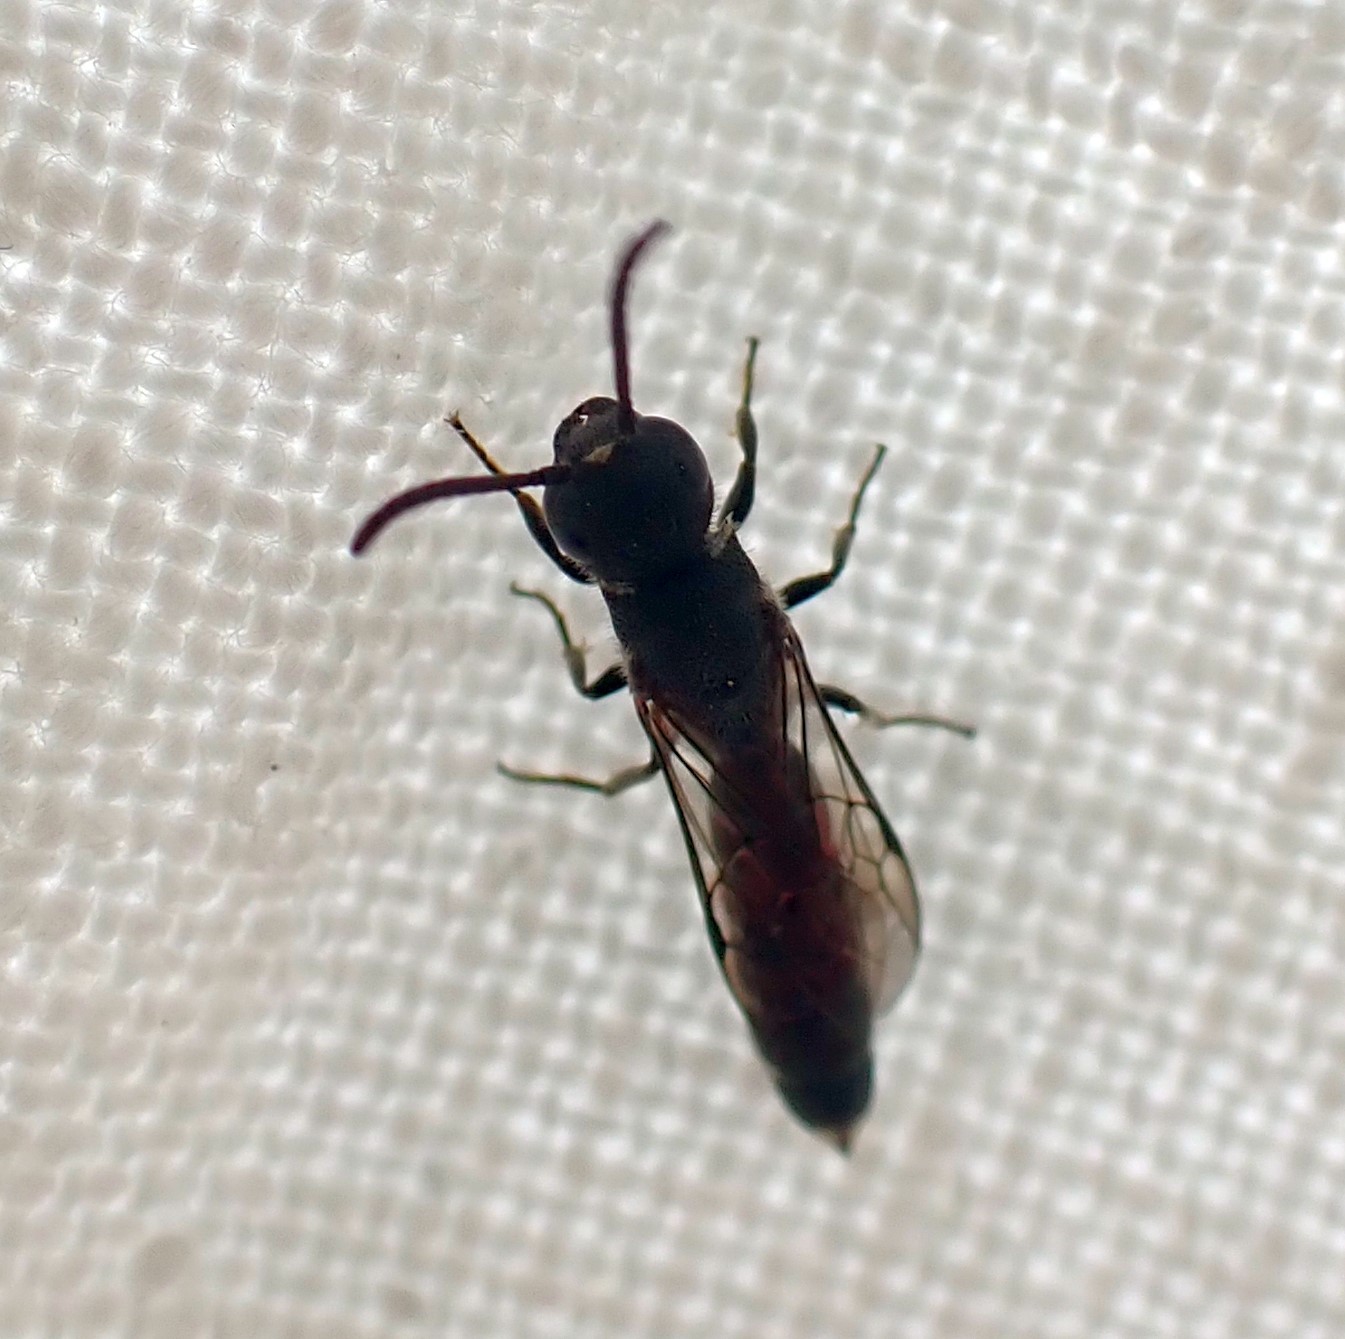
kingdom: Animalia
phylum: Arthropoda
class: Insecta
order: Hymenoptera
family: Sapygidae
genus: Sapygina
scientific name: Sapygina decemguttata
